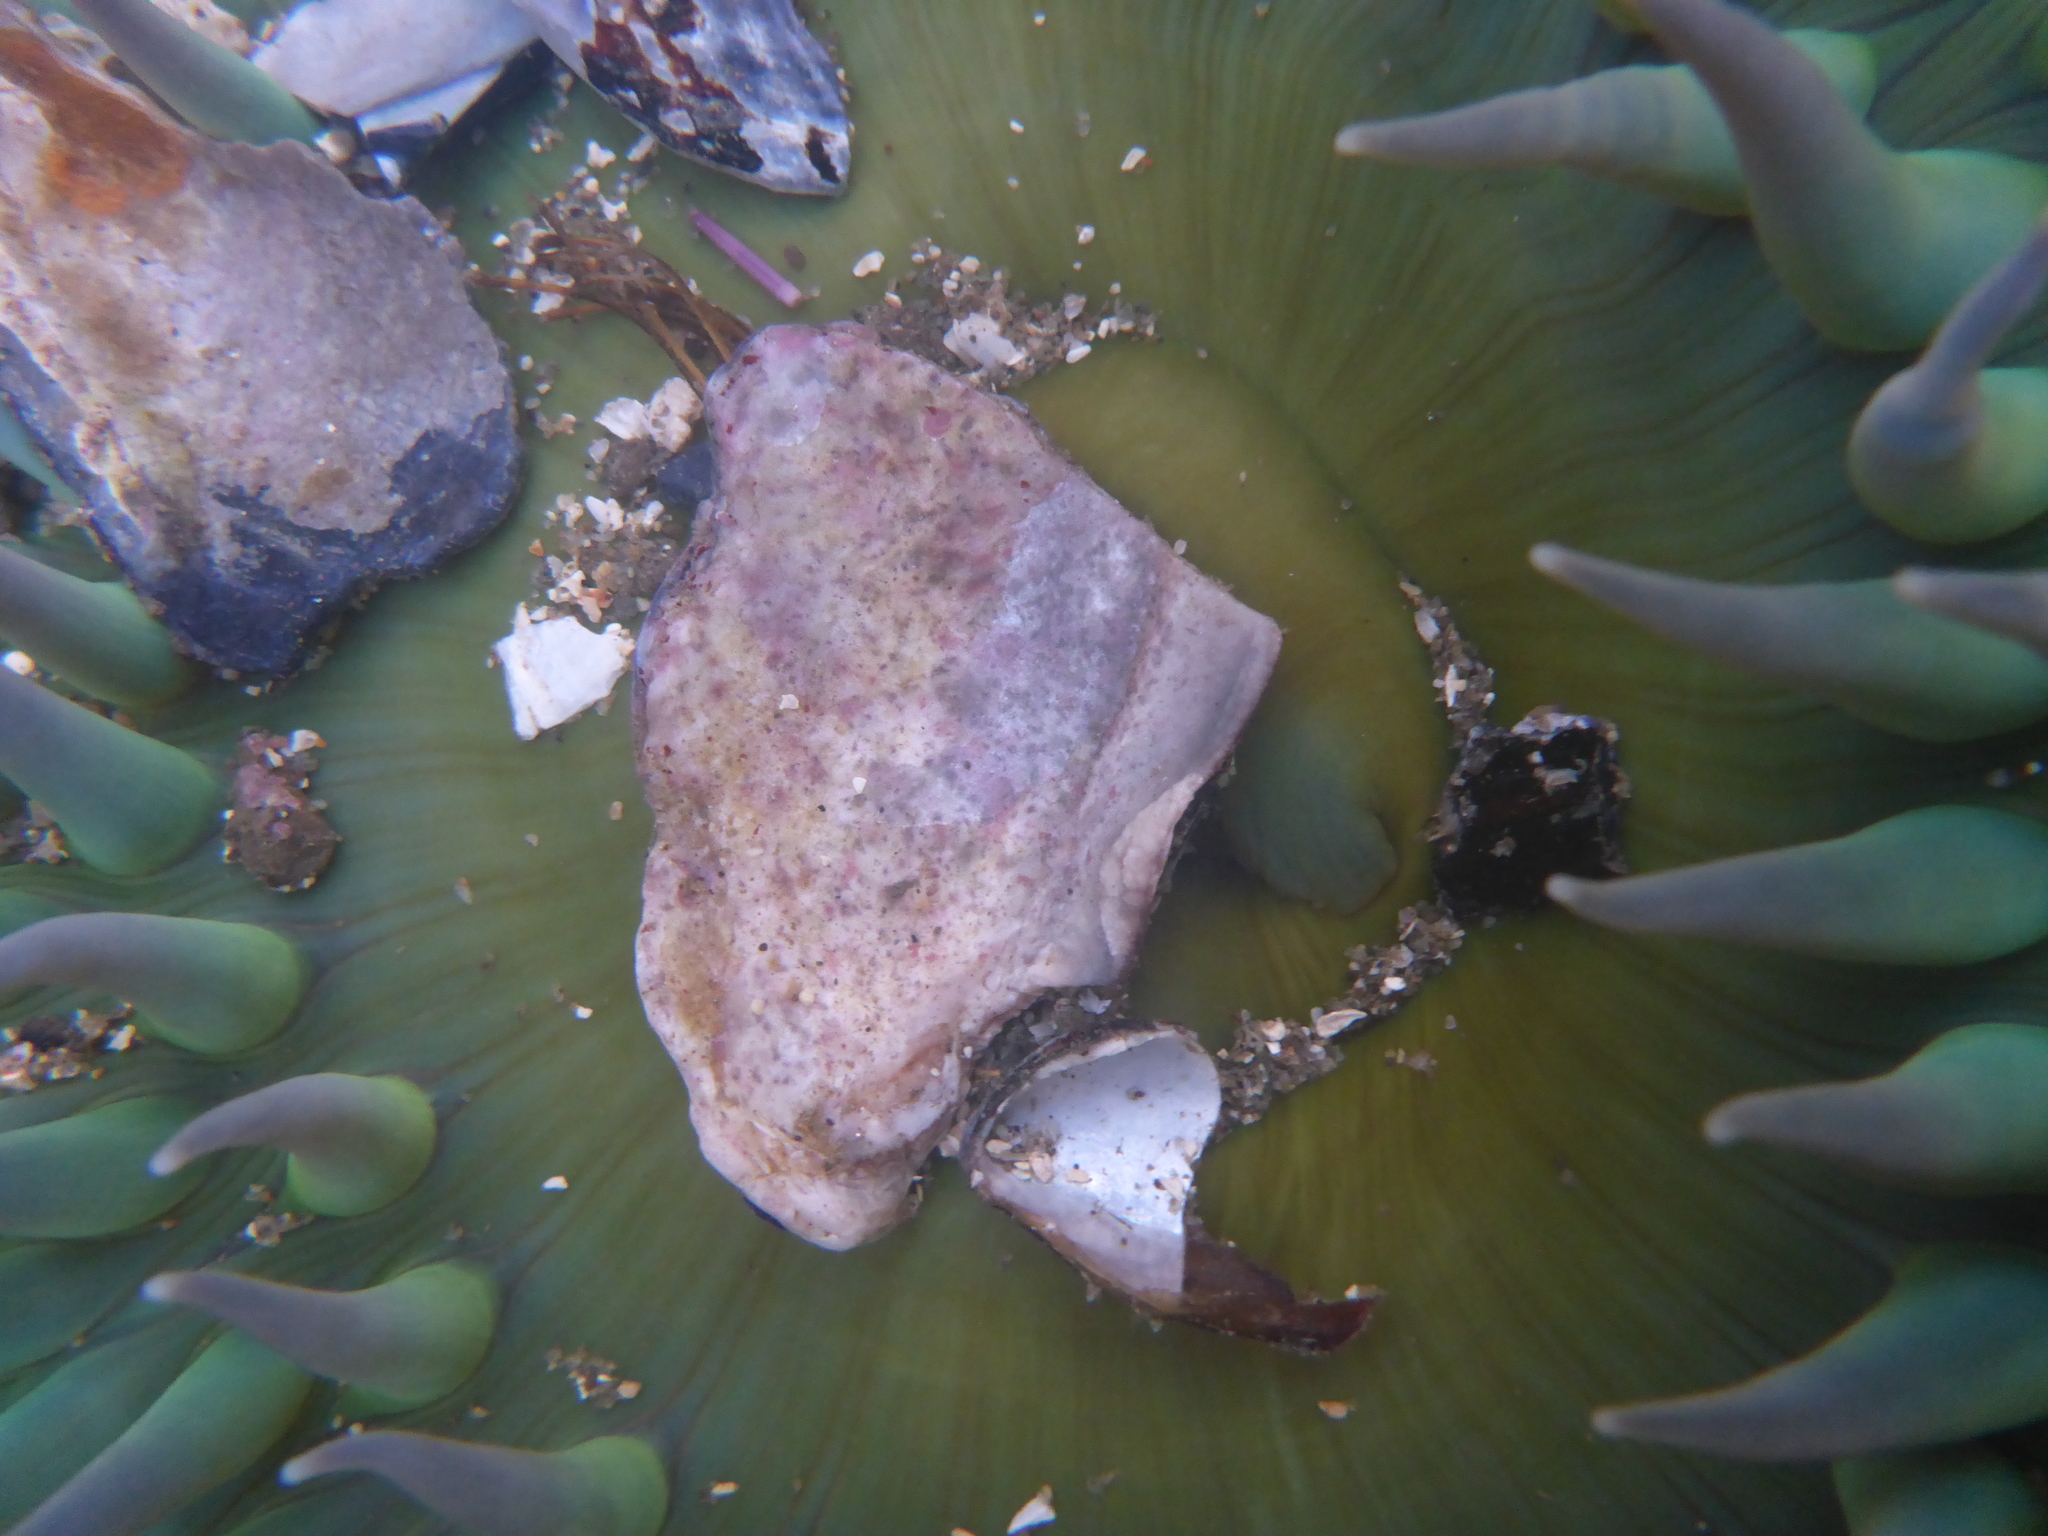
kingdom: Animalia
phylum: Cnidaria
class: Anthozoa
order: Actiniaria
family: Actiniidae
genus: Anthopleura
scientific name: Anthopleura xanthogrammica
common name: Giant green anemone
